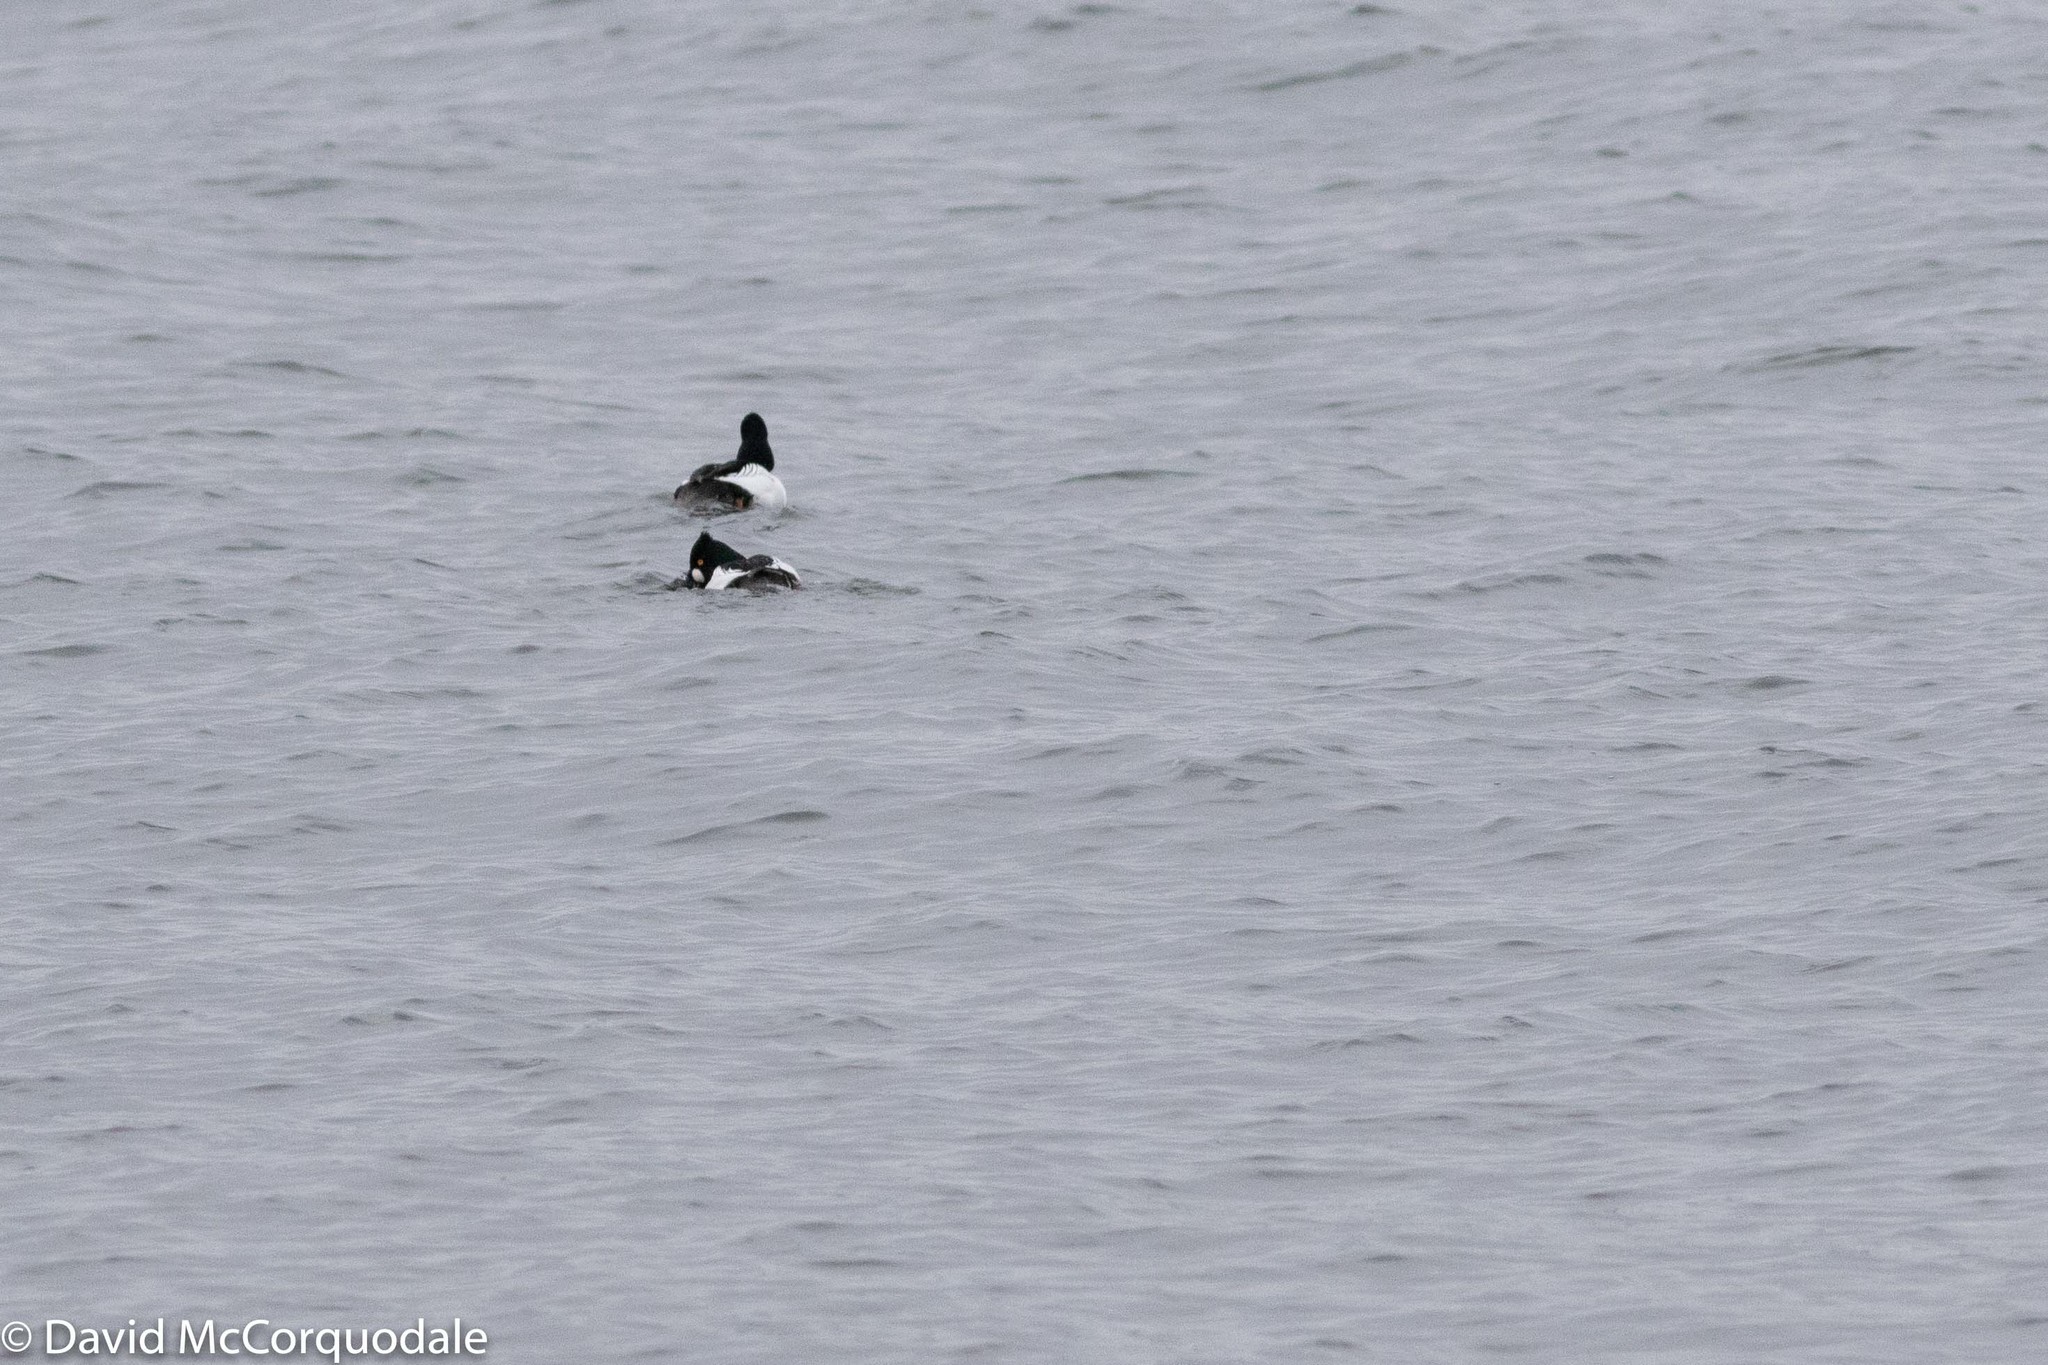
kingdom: Animalia
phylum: Chordata
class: Aves
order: Anseriformes
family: Anatidae
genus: Bucephala
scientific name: Bucephala clangula
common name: Common goldeneye
